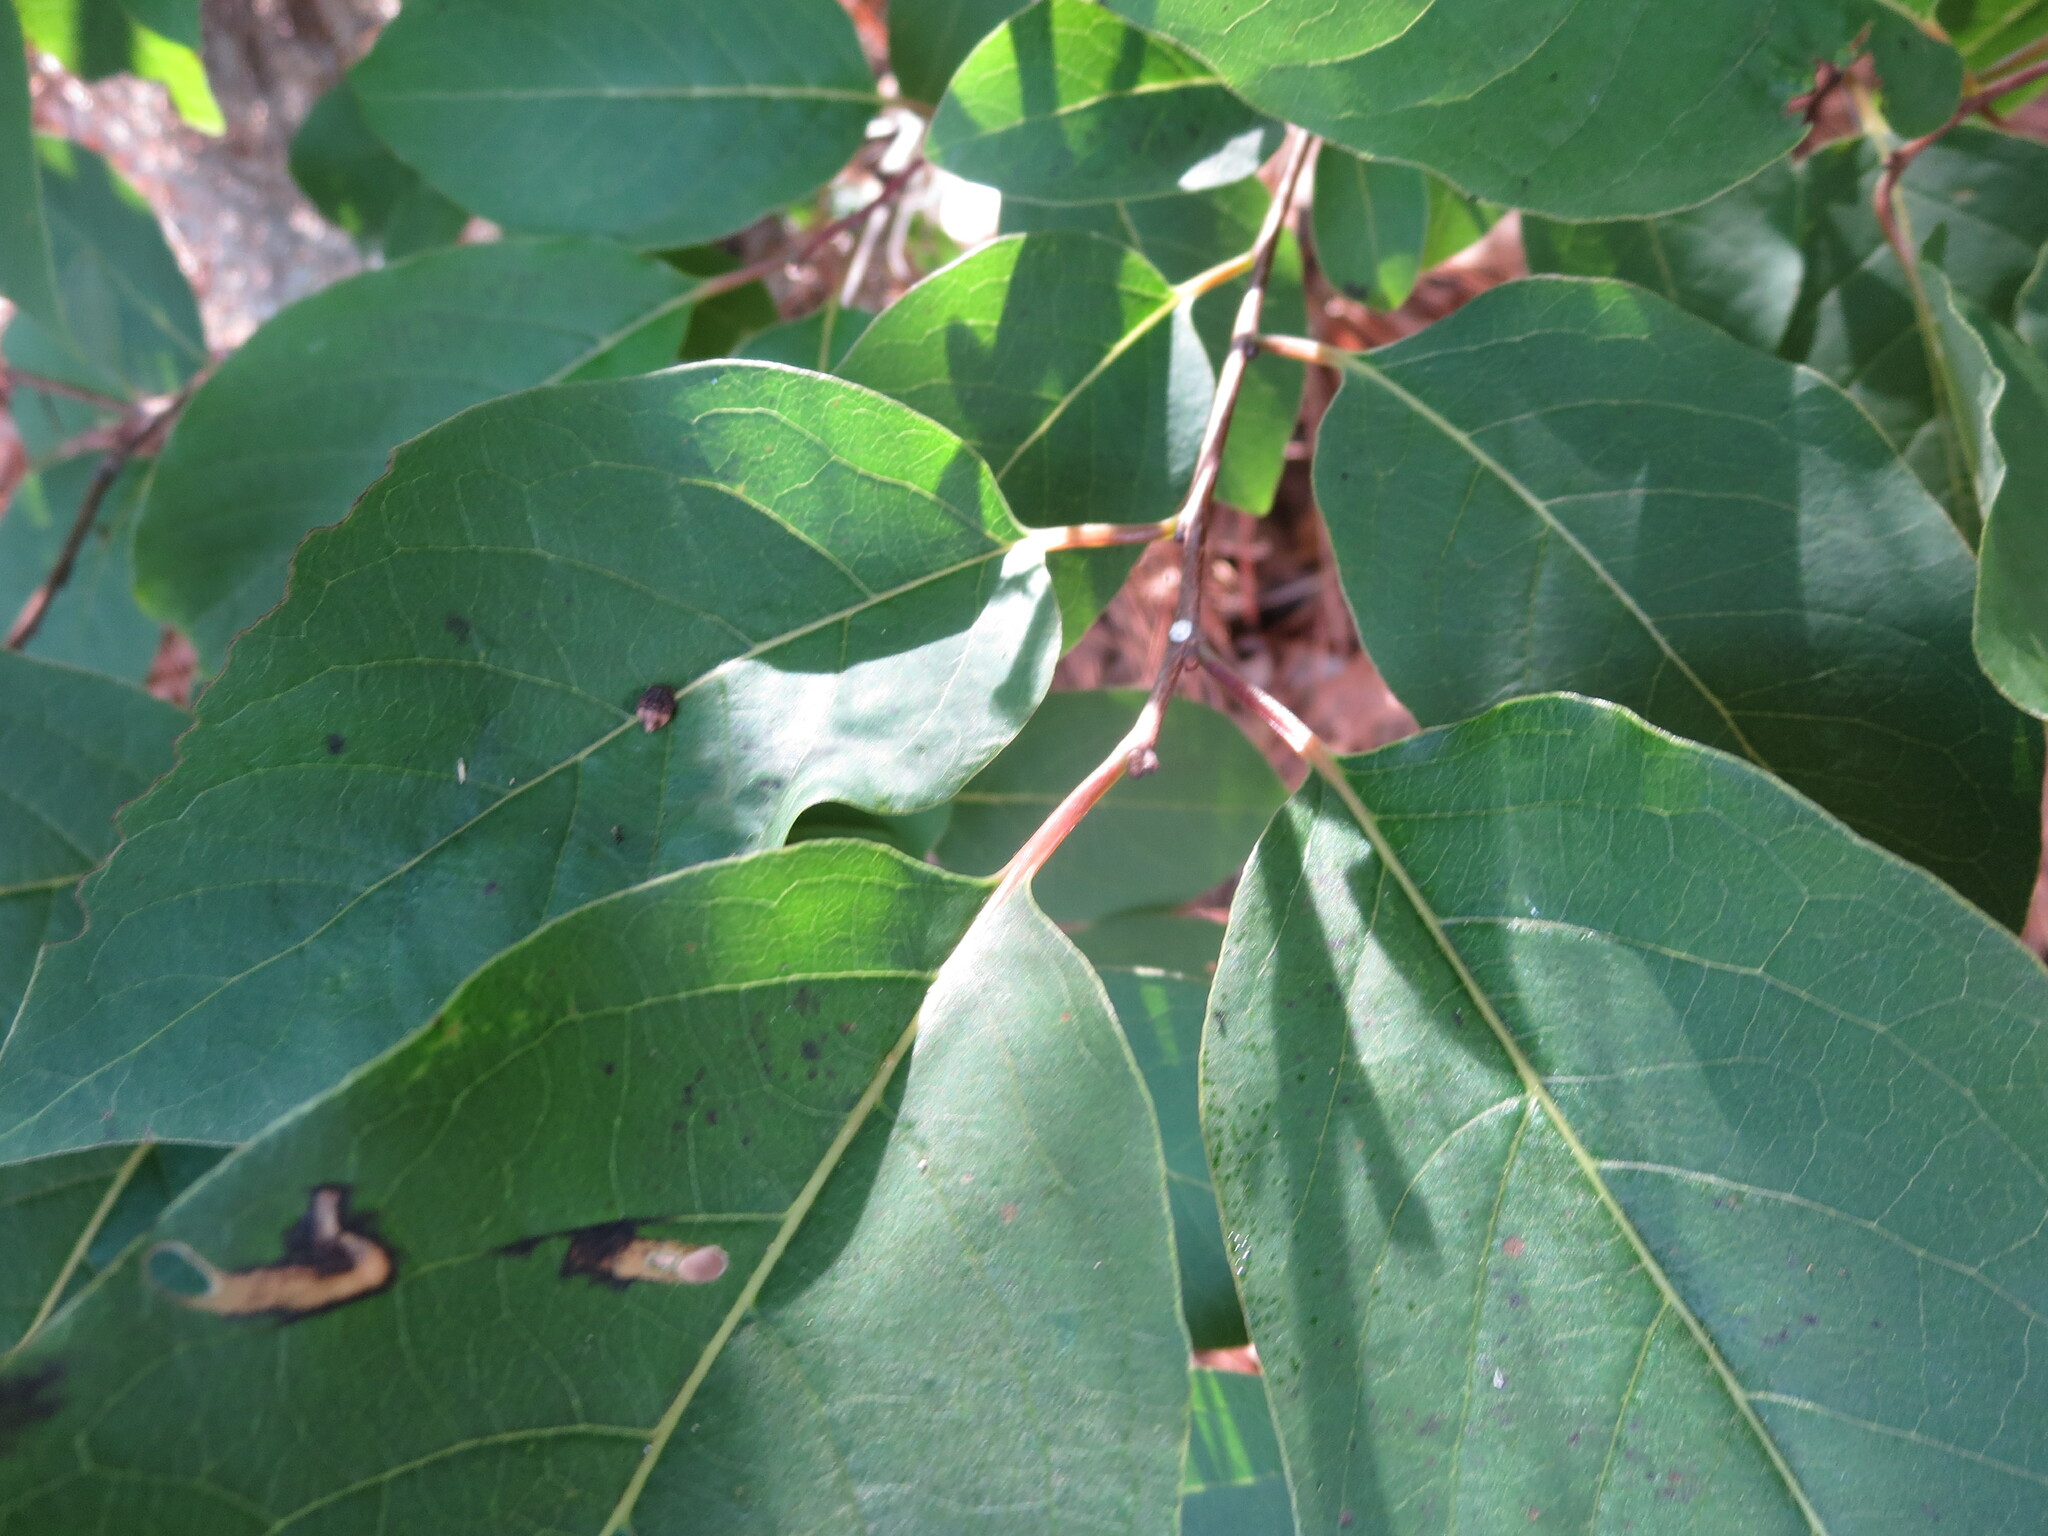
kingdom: Plantae
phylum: Tracheophyta
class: Magnoliopsida
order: Ericales
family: Ebenaceae
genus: Diospyros
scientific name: Diospyros virginiana
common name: Persimmon
